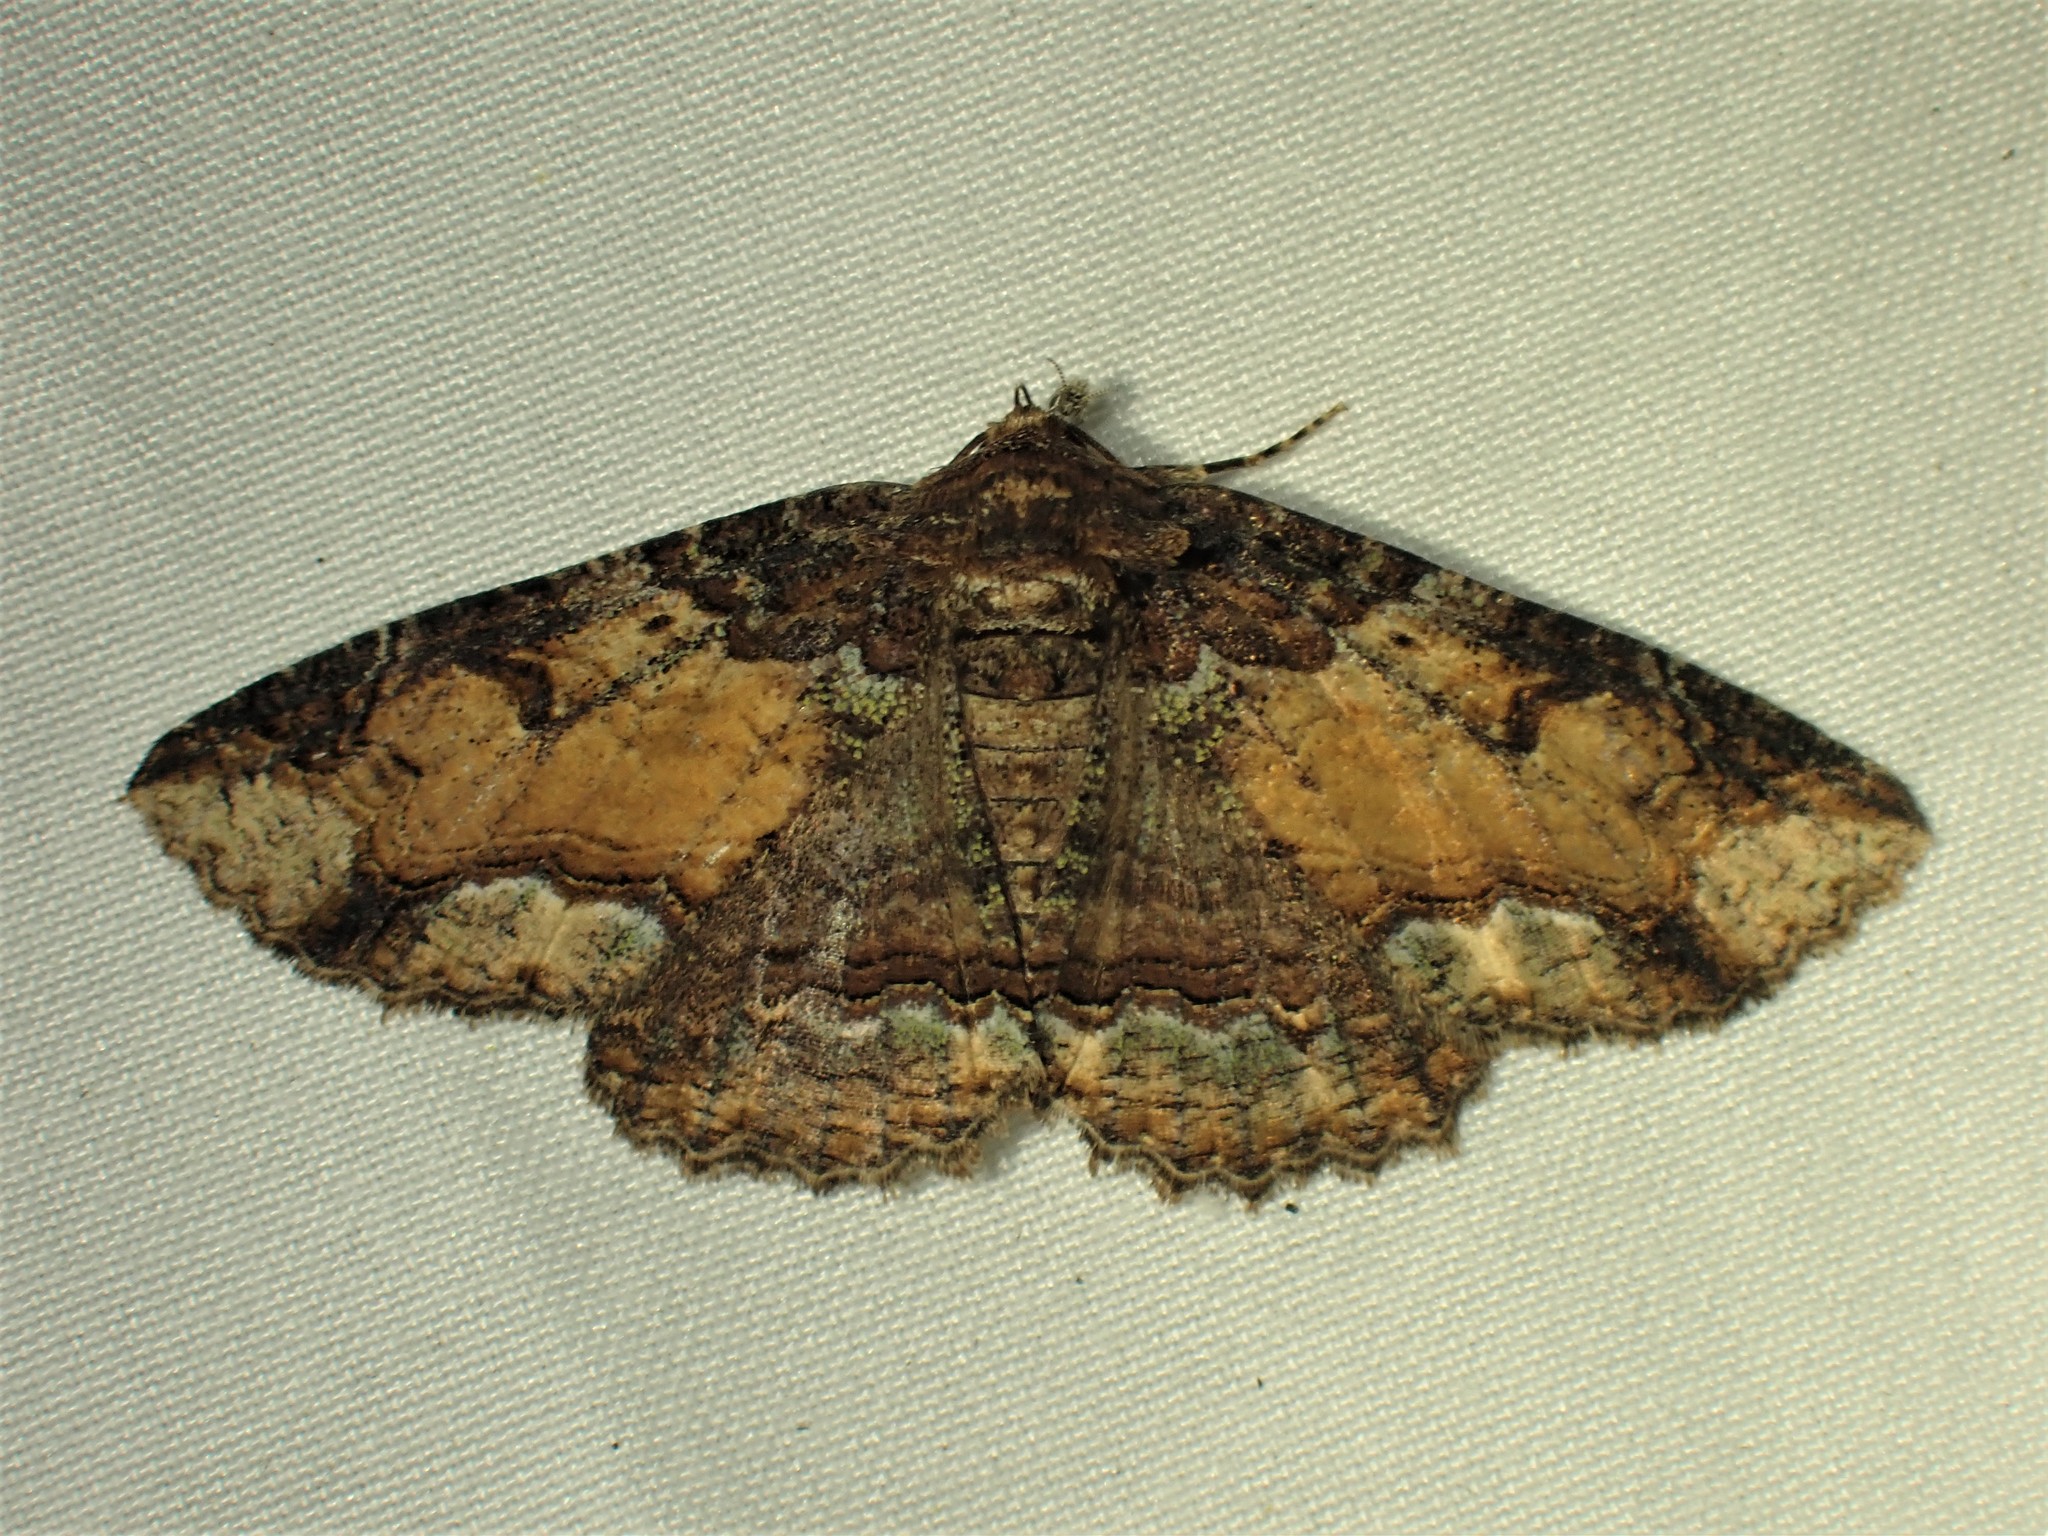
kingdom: Animalia
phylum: Arthropoda
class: Insecta
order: Lepidoptera
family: Erebidae
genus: Zale
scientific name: Zale minerea
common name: Colorful zale moth
